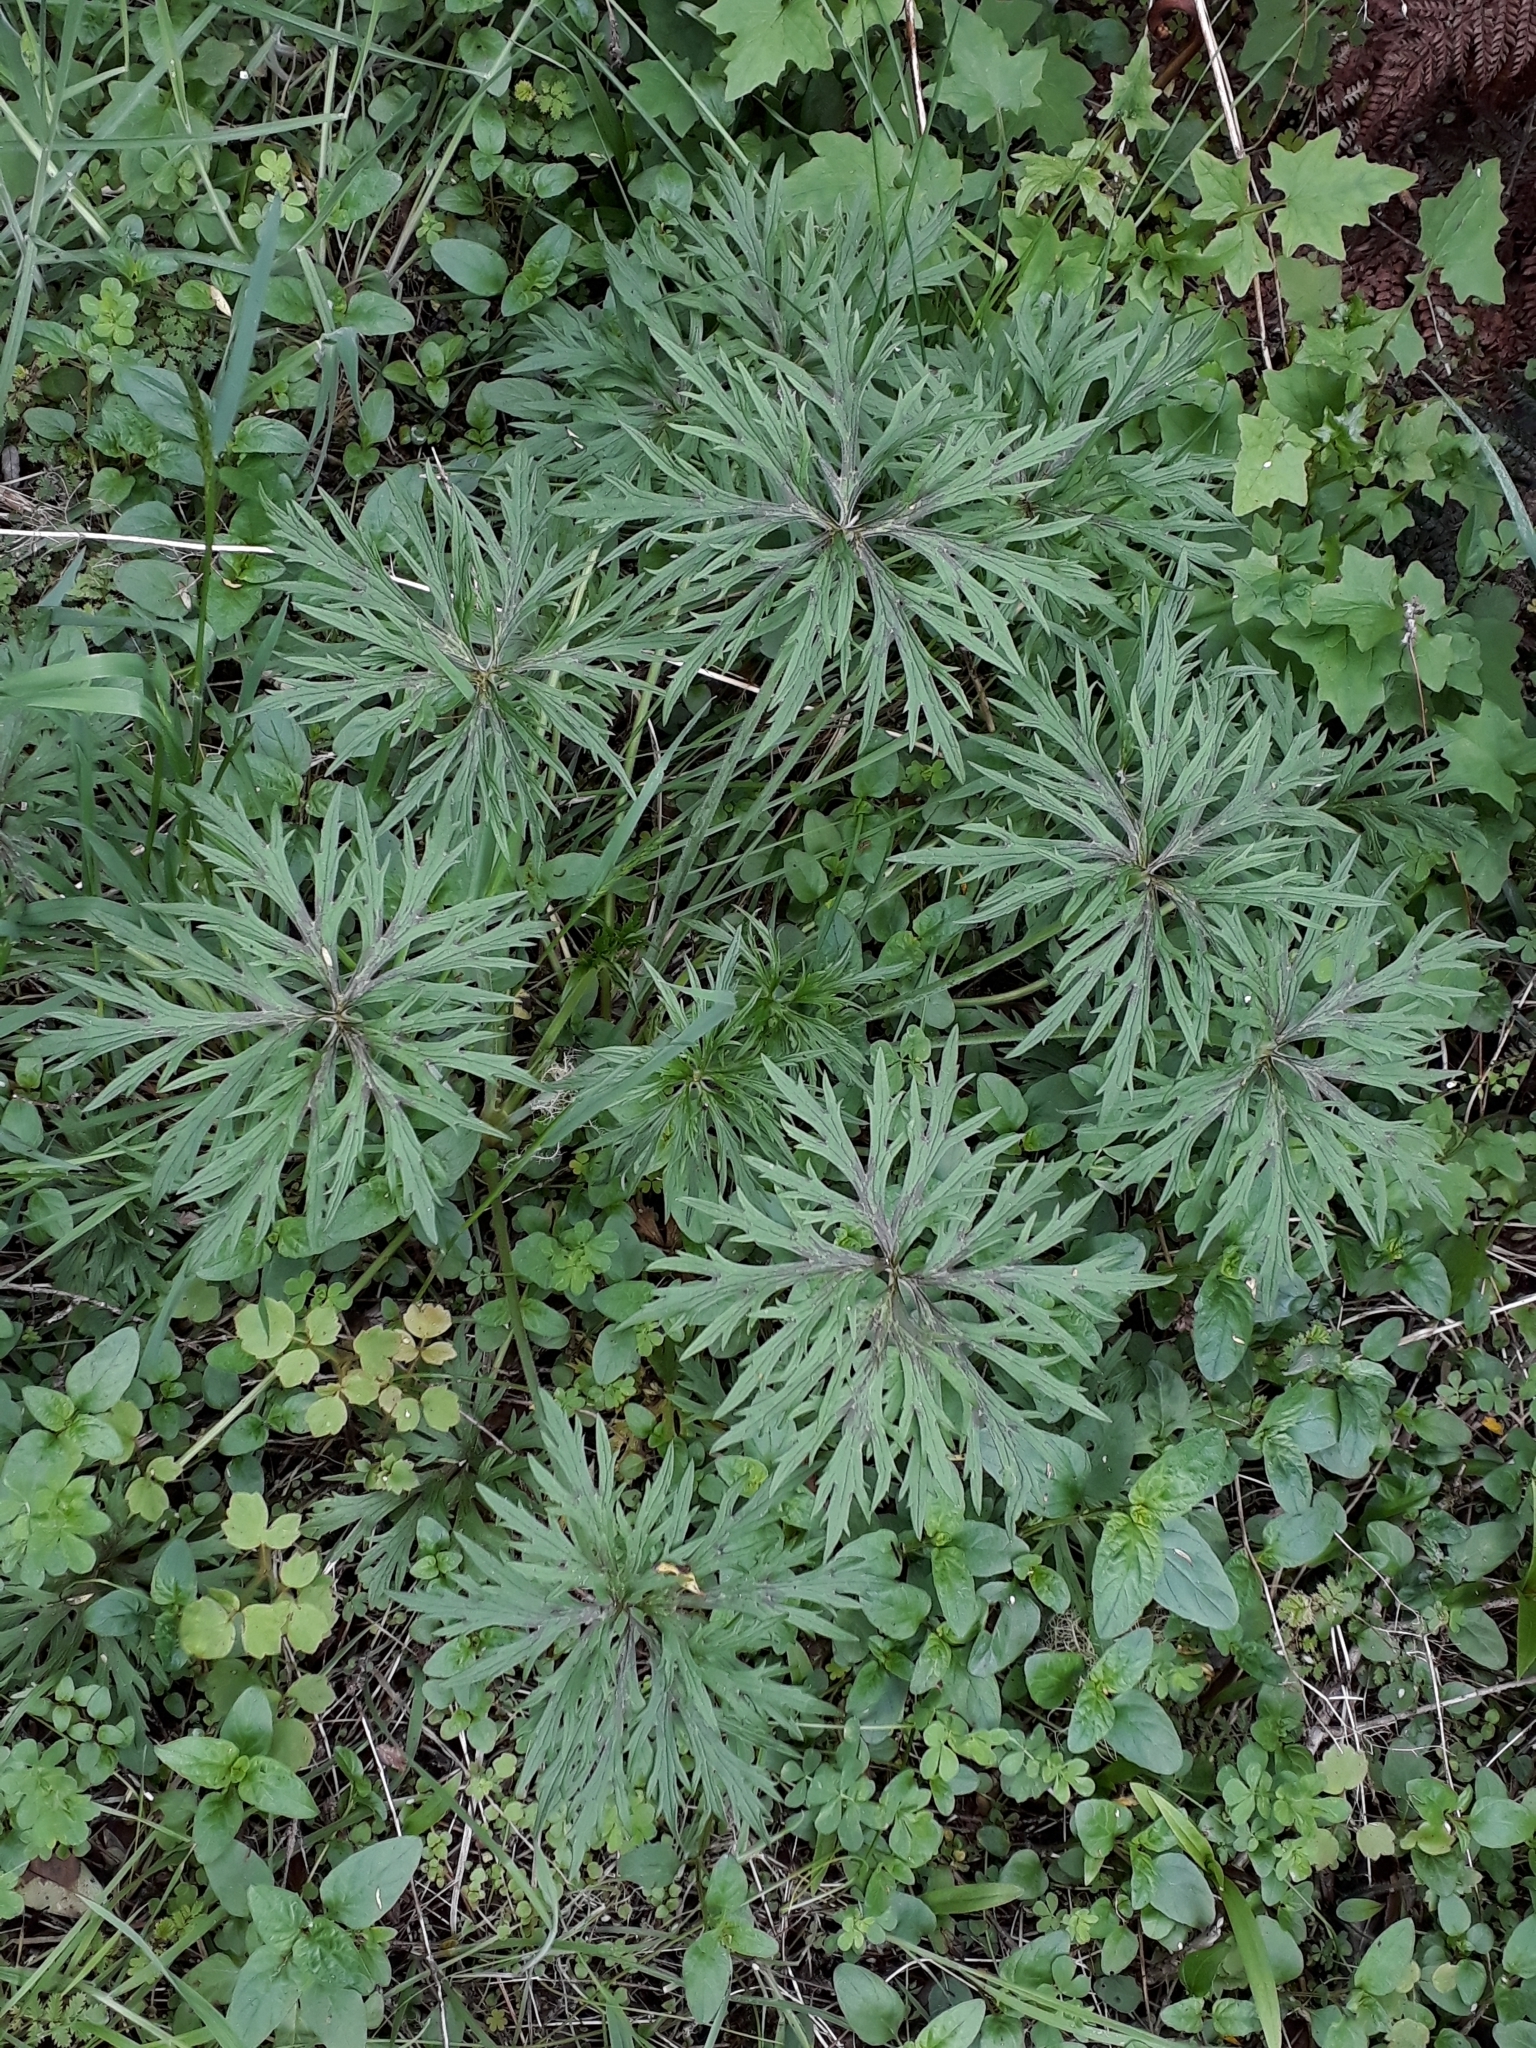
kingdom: Plantae
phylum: Tracheophyta
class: Magnoliopsida
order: Ranunculales
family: Ranunculaceae
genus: Ranunculus
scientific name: Ranunculus acris
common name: Meadow buttercup
